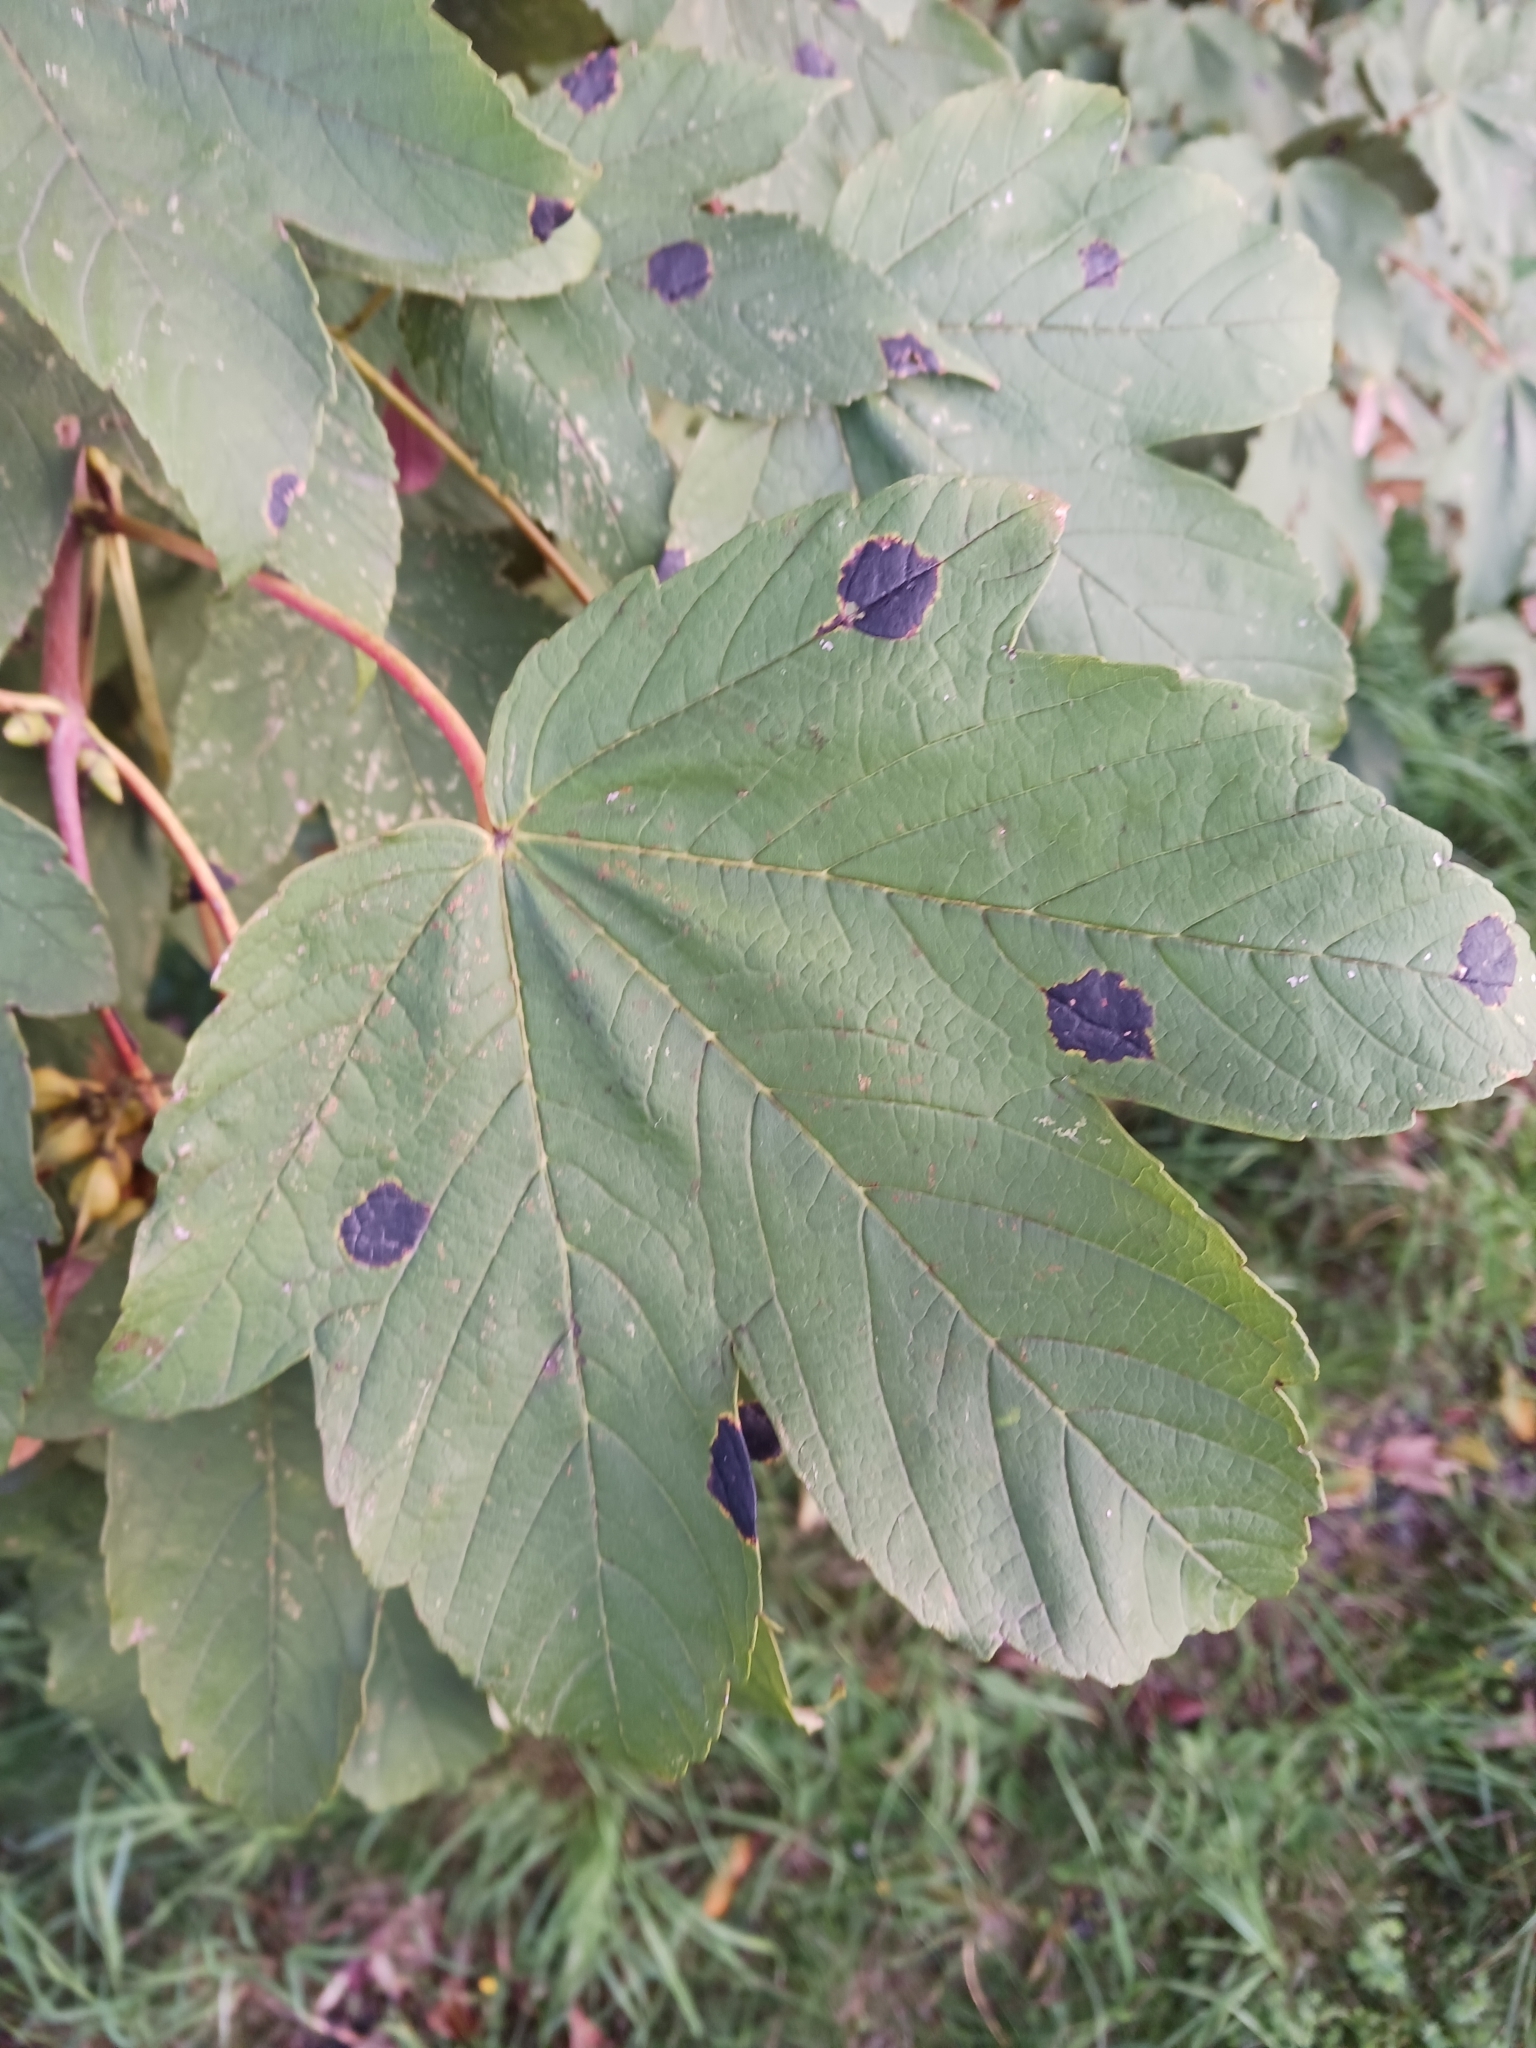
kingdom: Fungi
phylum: Ascomycota
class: Leotiomycetes
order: Rhytismatales
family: Rhytismataceae
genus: Rhytisma
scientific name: Rhytisma acerinum
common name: European tar spot
